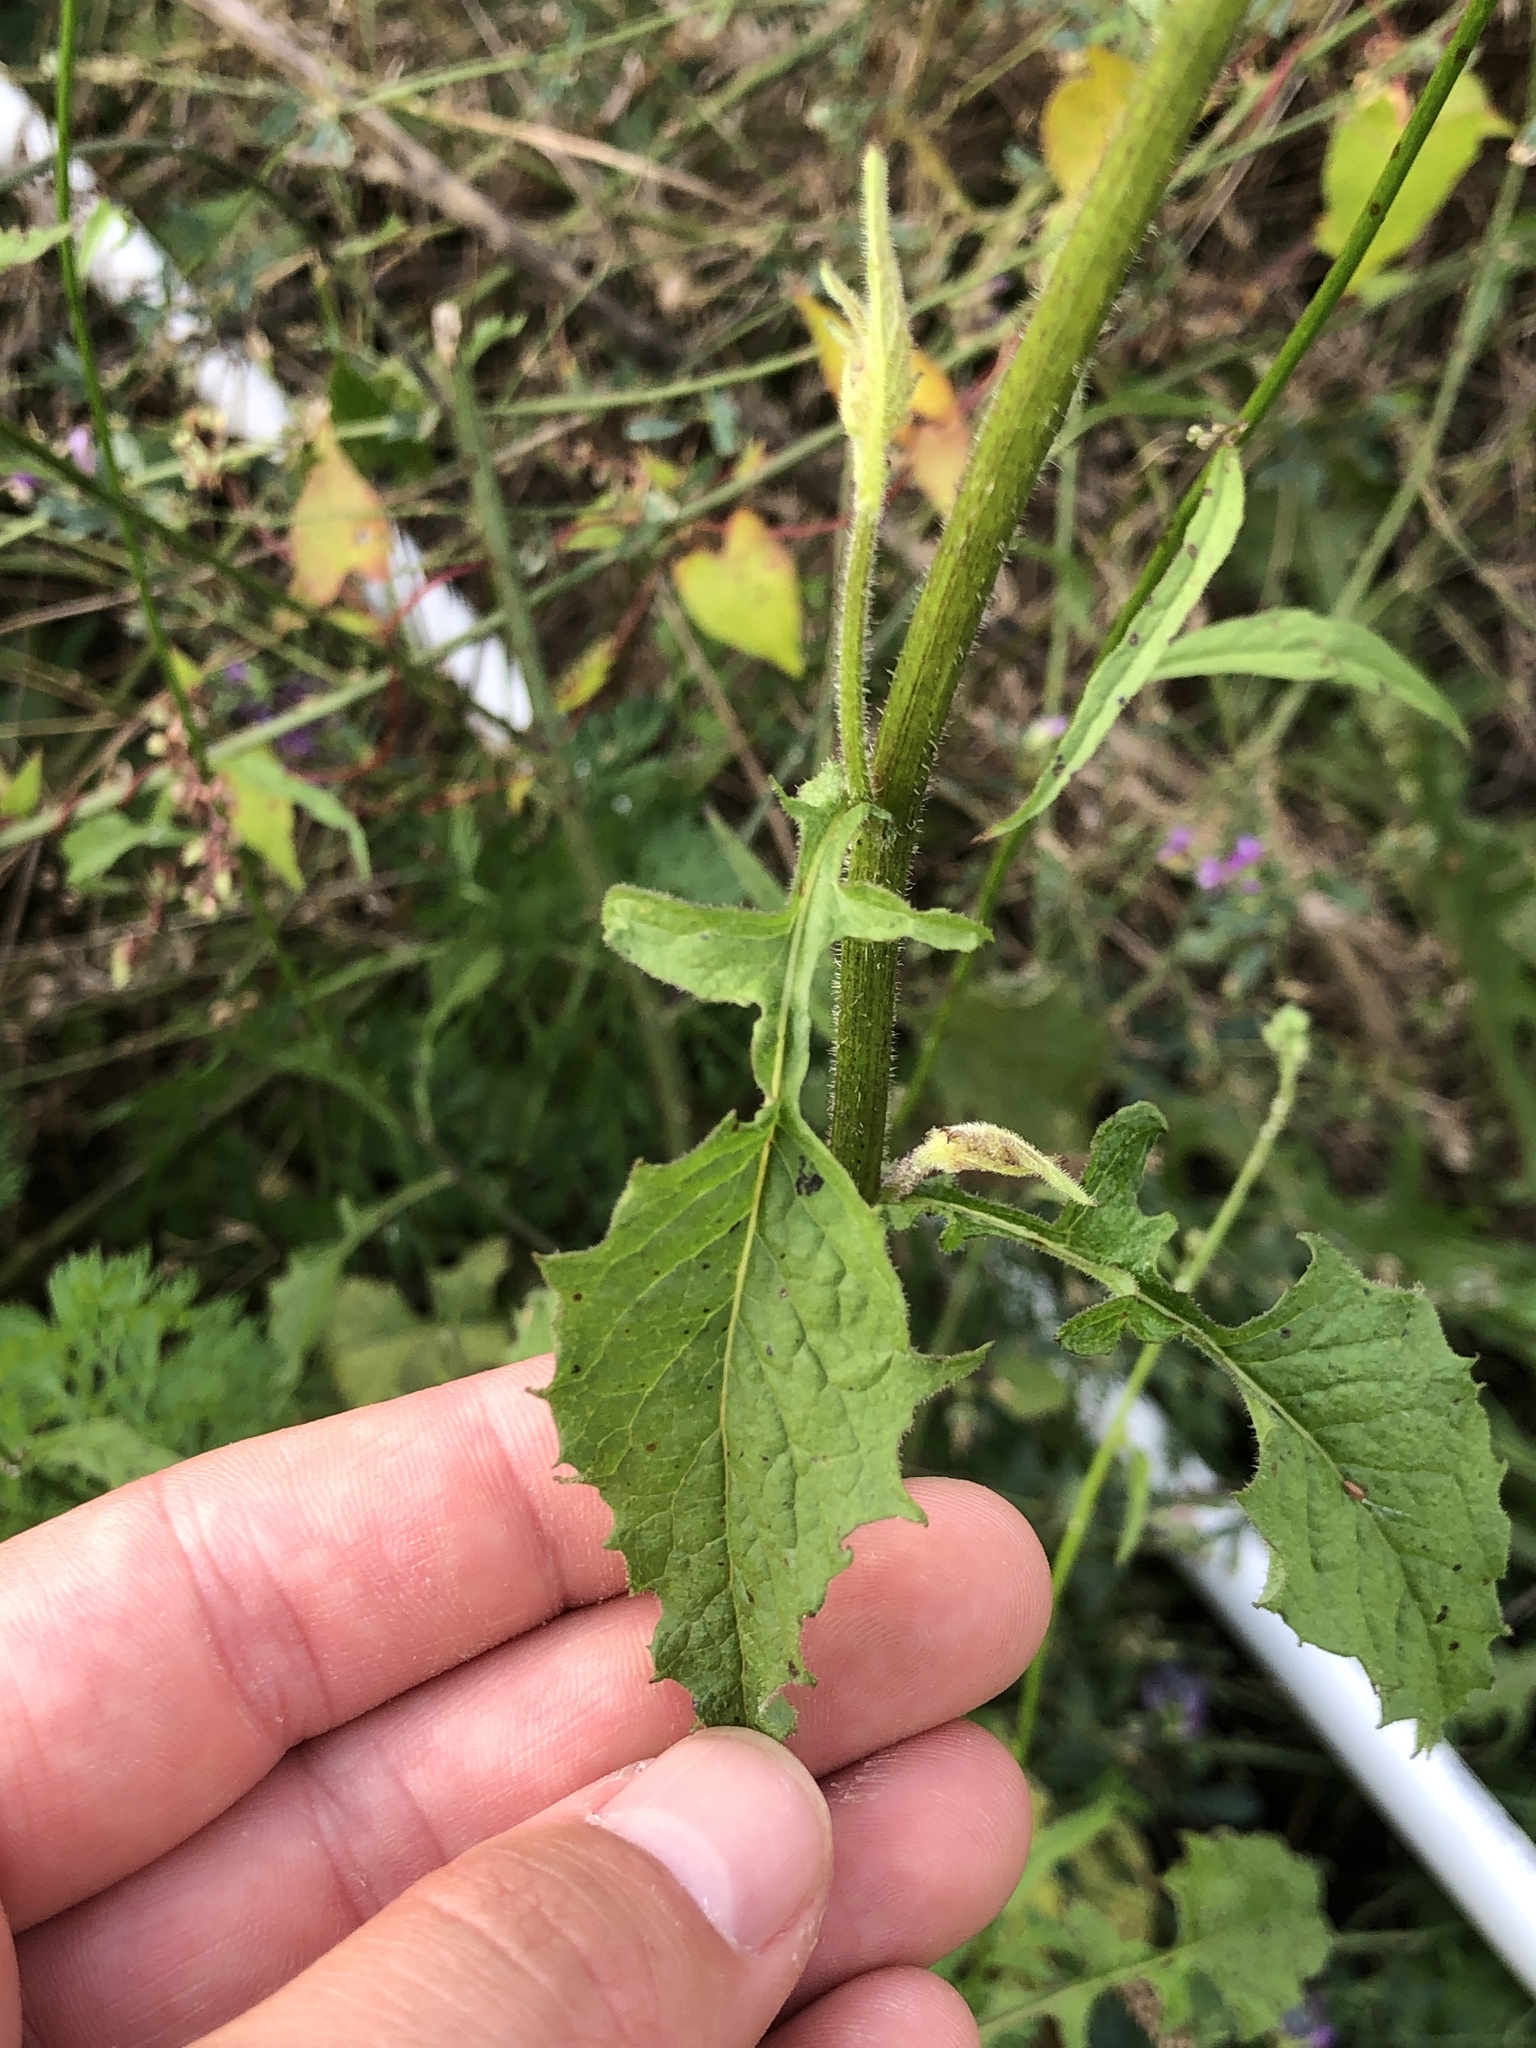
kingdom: Plantae
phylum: Tracheophyta
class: Magnoliopsida
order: Asterales
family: Asteraceae
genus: Lapsana
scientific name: Lapsana communis
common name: Nipplewort
